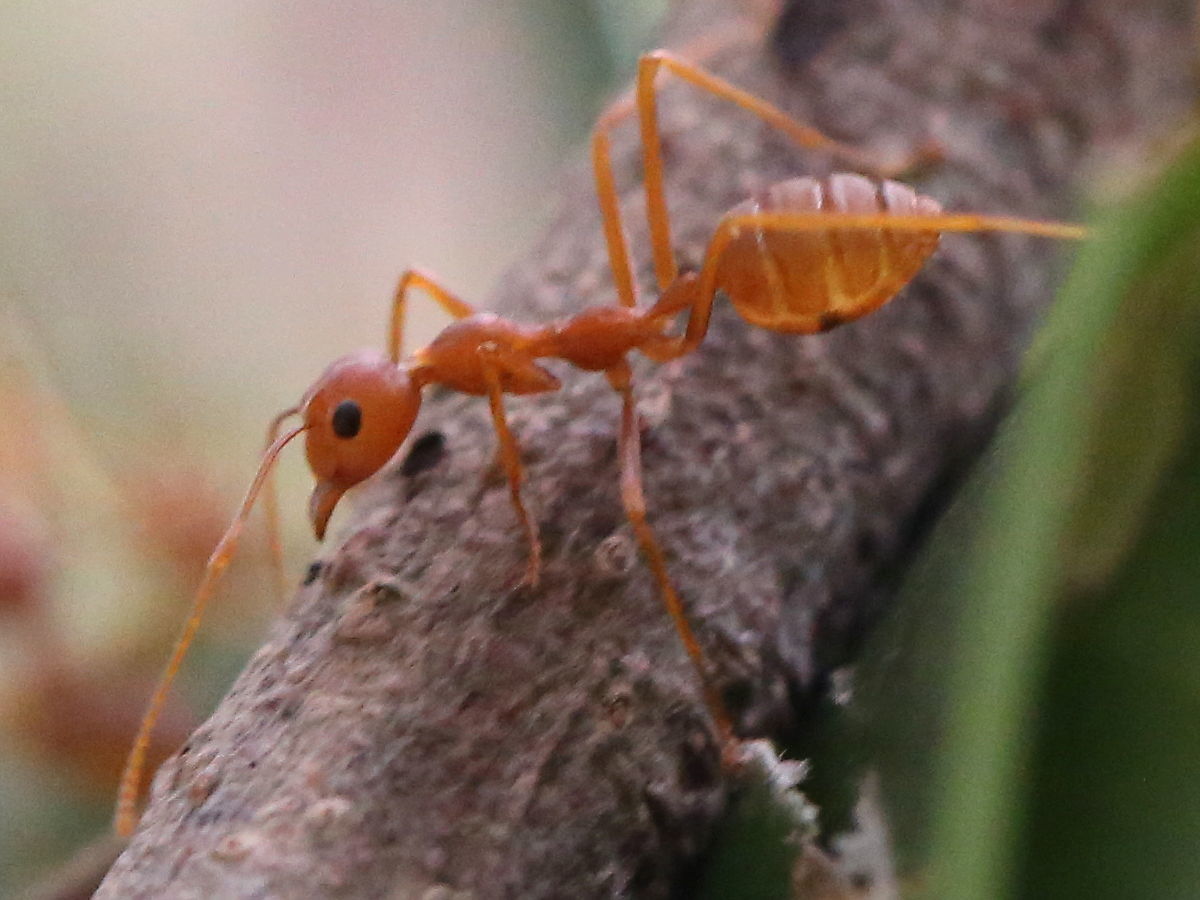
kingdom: Animalia
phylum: Arthropoda
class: Insecta
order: Hymenoptera
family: Formicidae
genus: Oecophylla
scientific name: Oecophylla smaragdina
